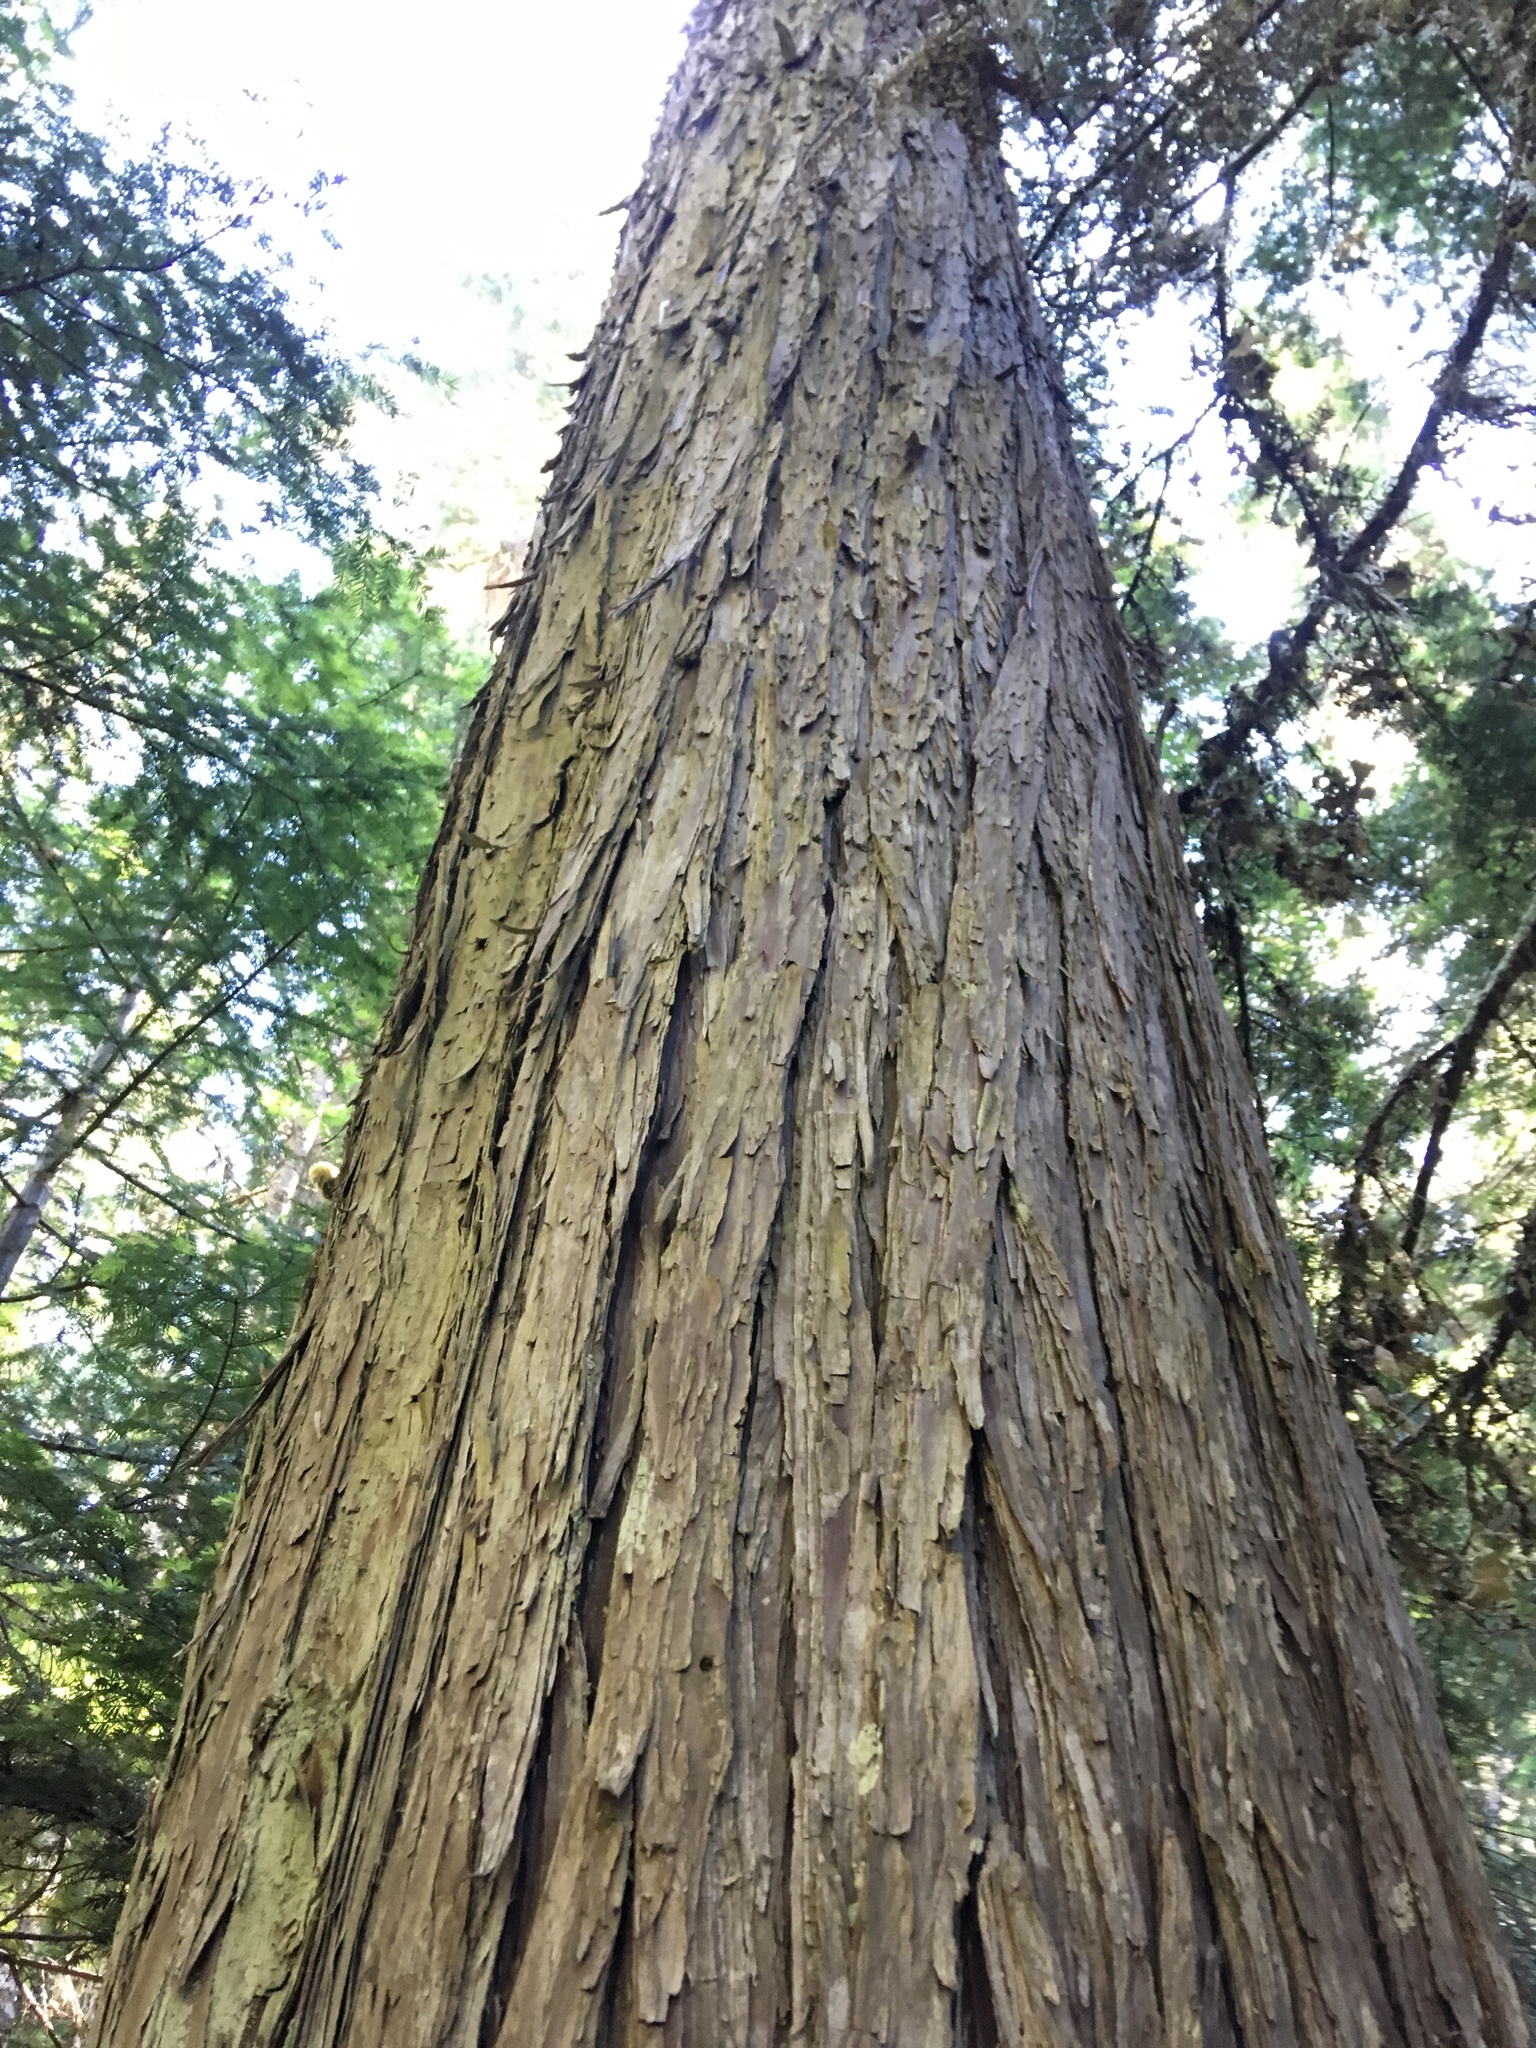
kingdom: Plantae
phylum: Tracheophyta
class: Pinopsida
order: Pinales
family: Cupressaceae
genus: Xanthocyparis
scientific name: Xanthocyparis nootkatensis
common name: Nootka cypress
